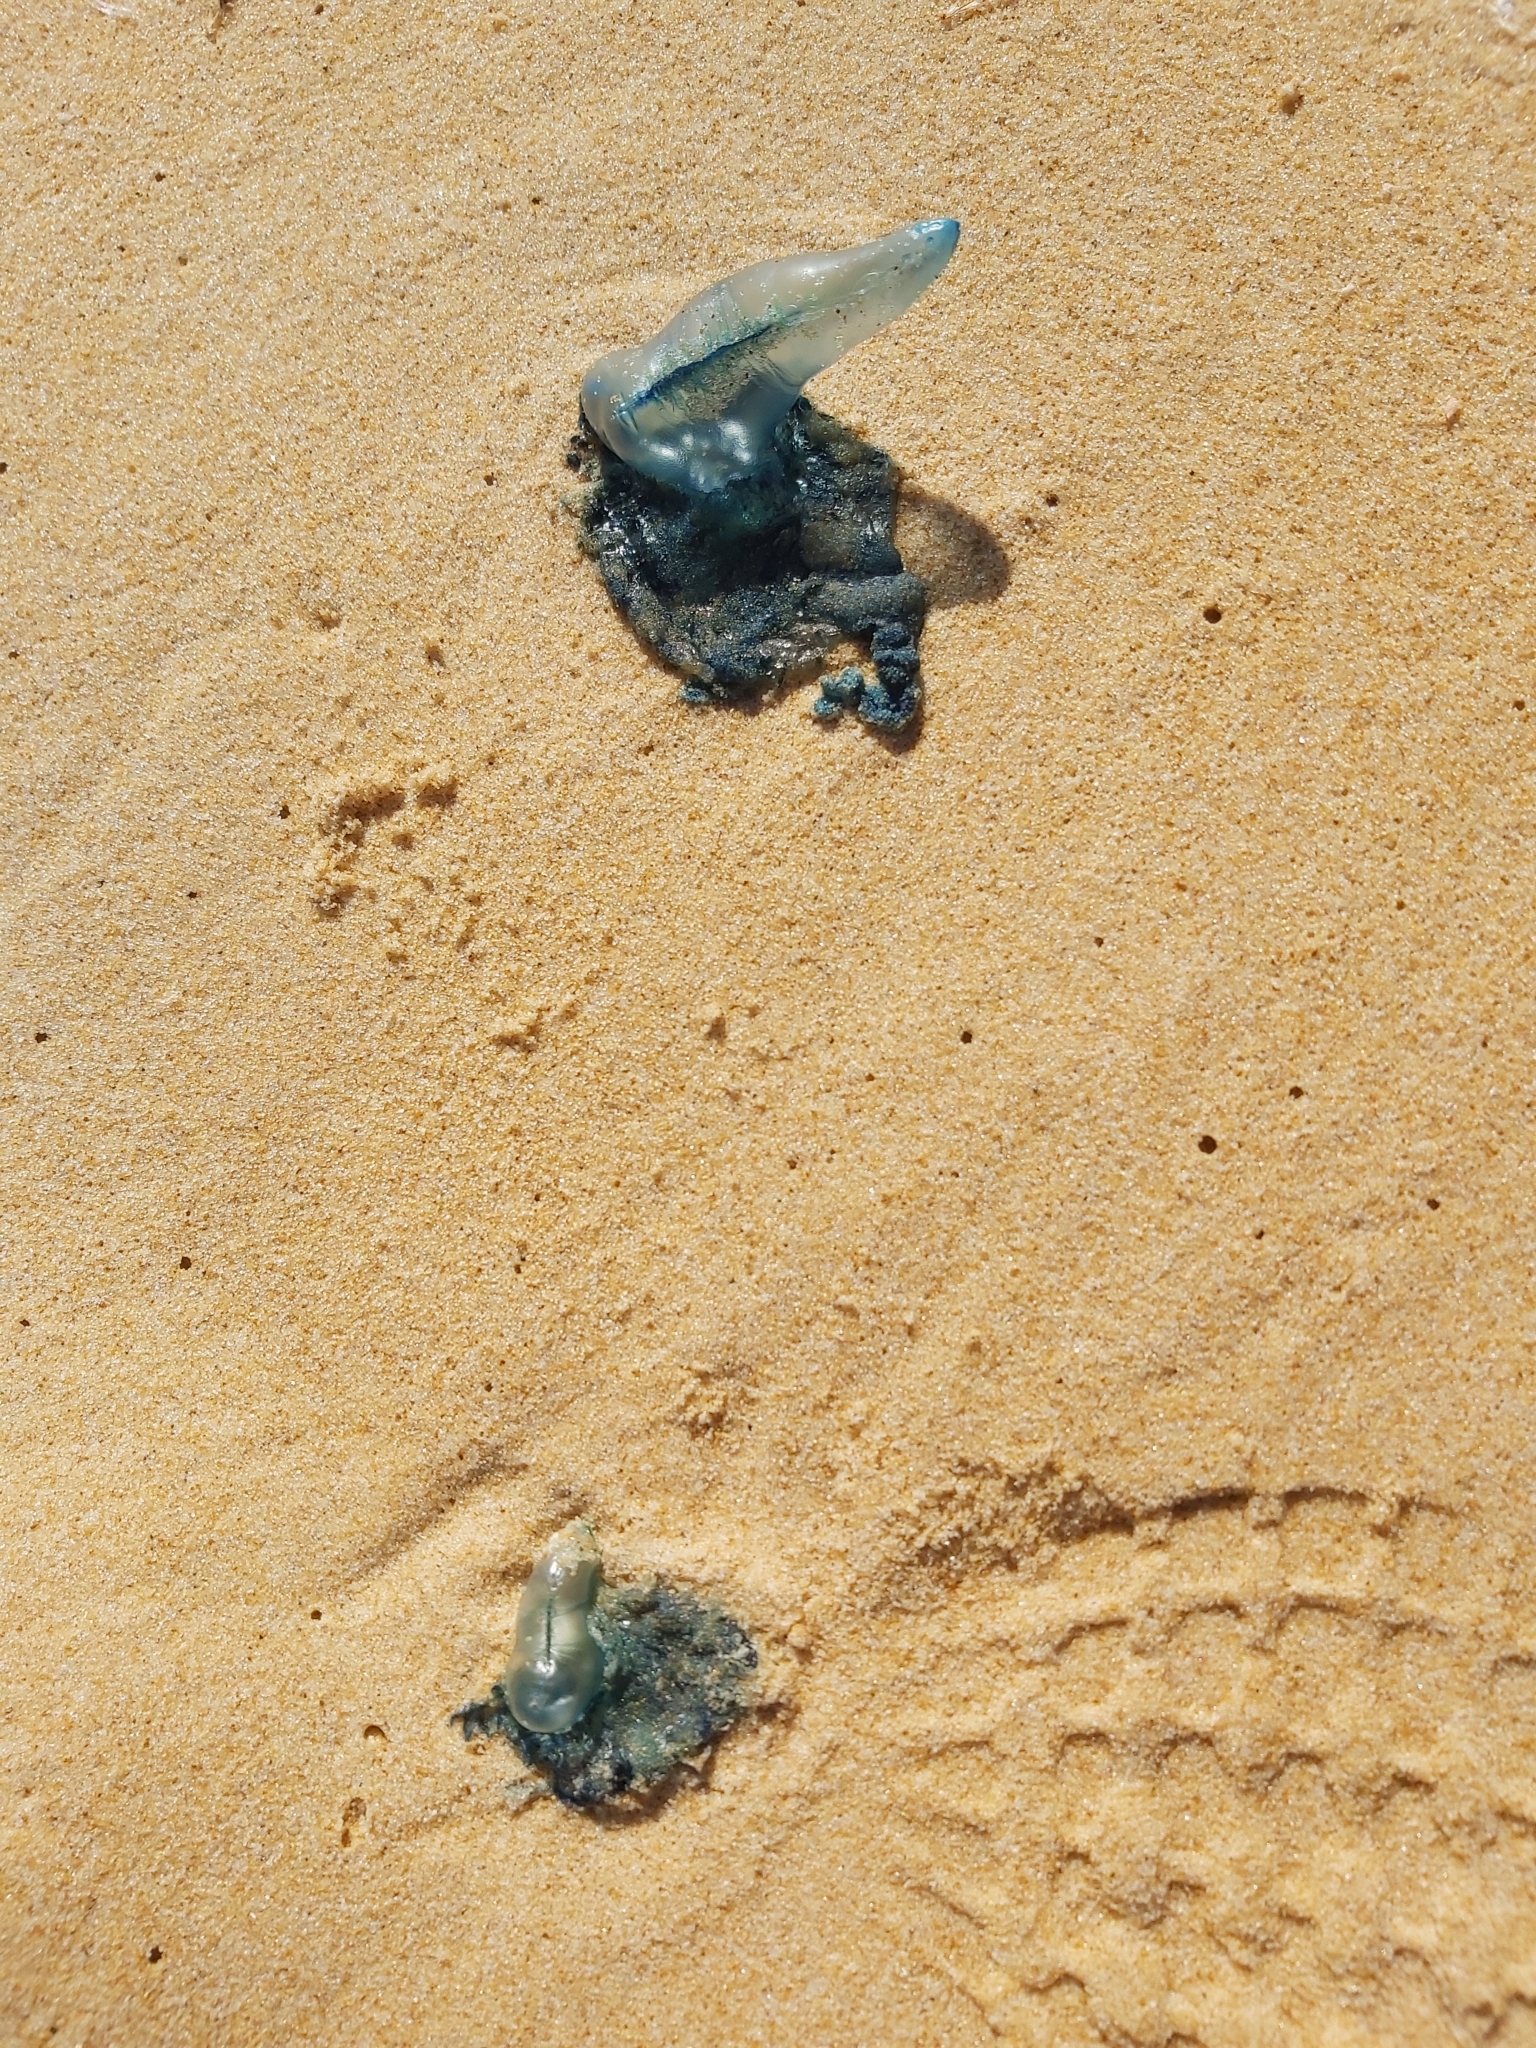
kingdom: Animalia
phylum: Cnidaria
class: Hydrozoa
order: Siphonophorae
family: Physaliidae
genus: Physalia
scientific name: Physalia physalis
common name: Portuguese man-of-war
